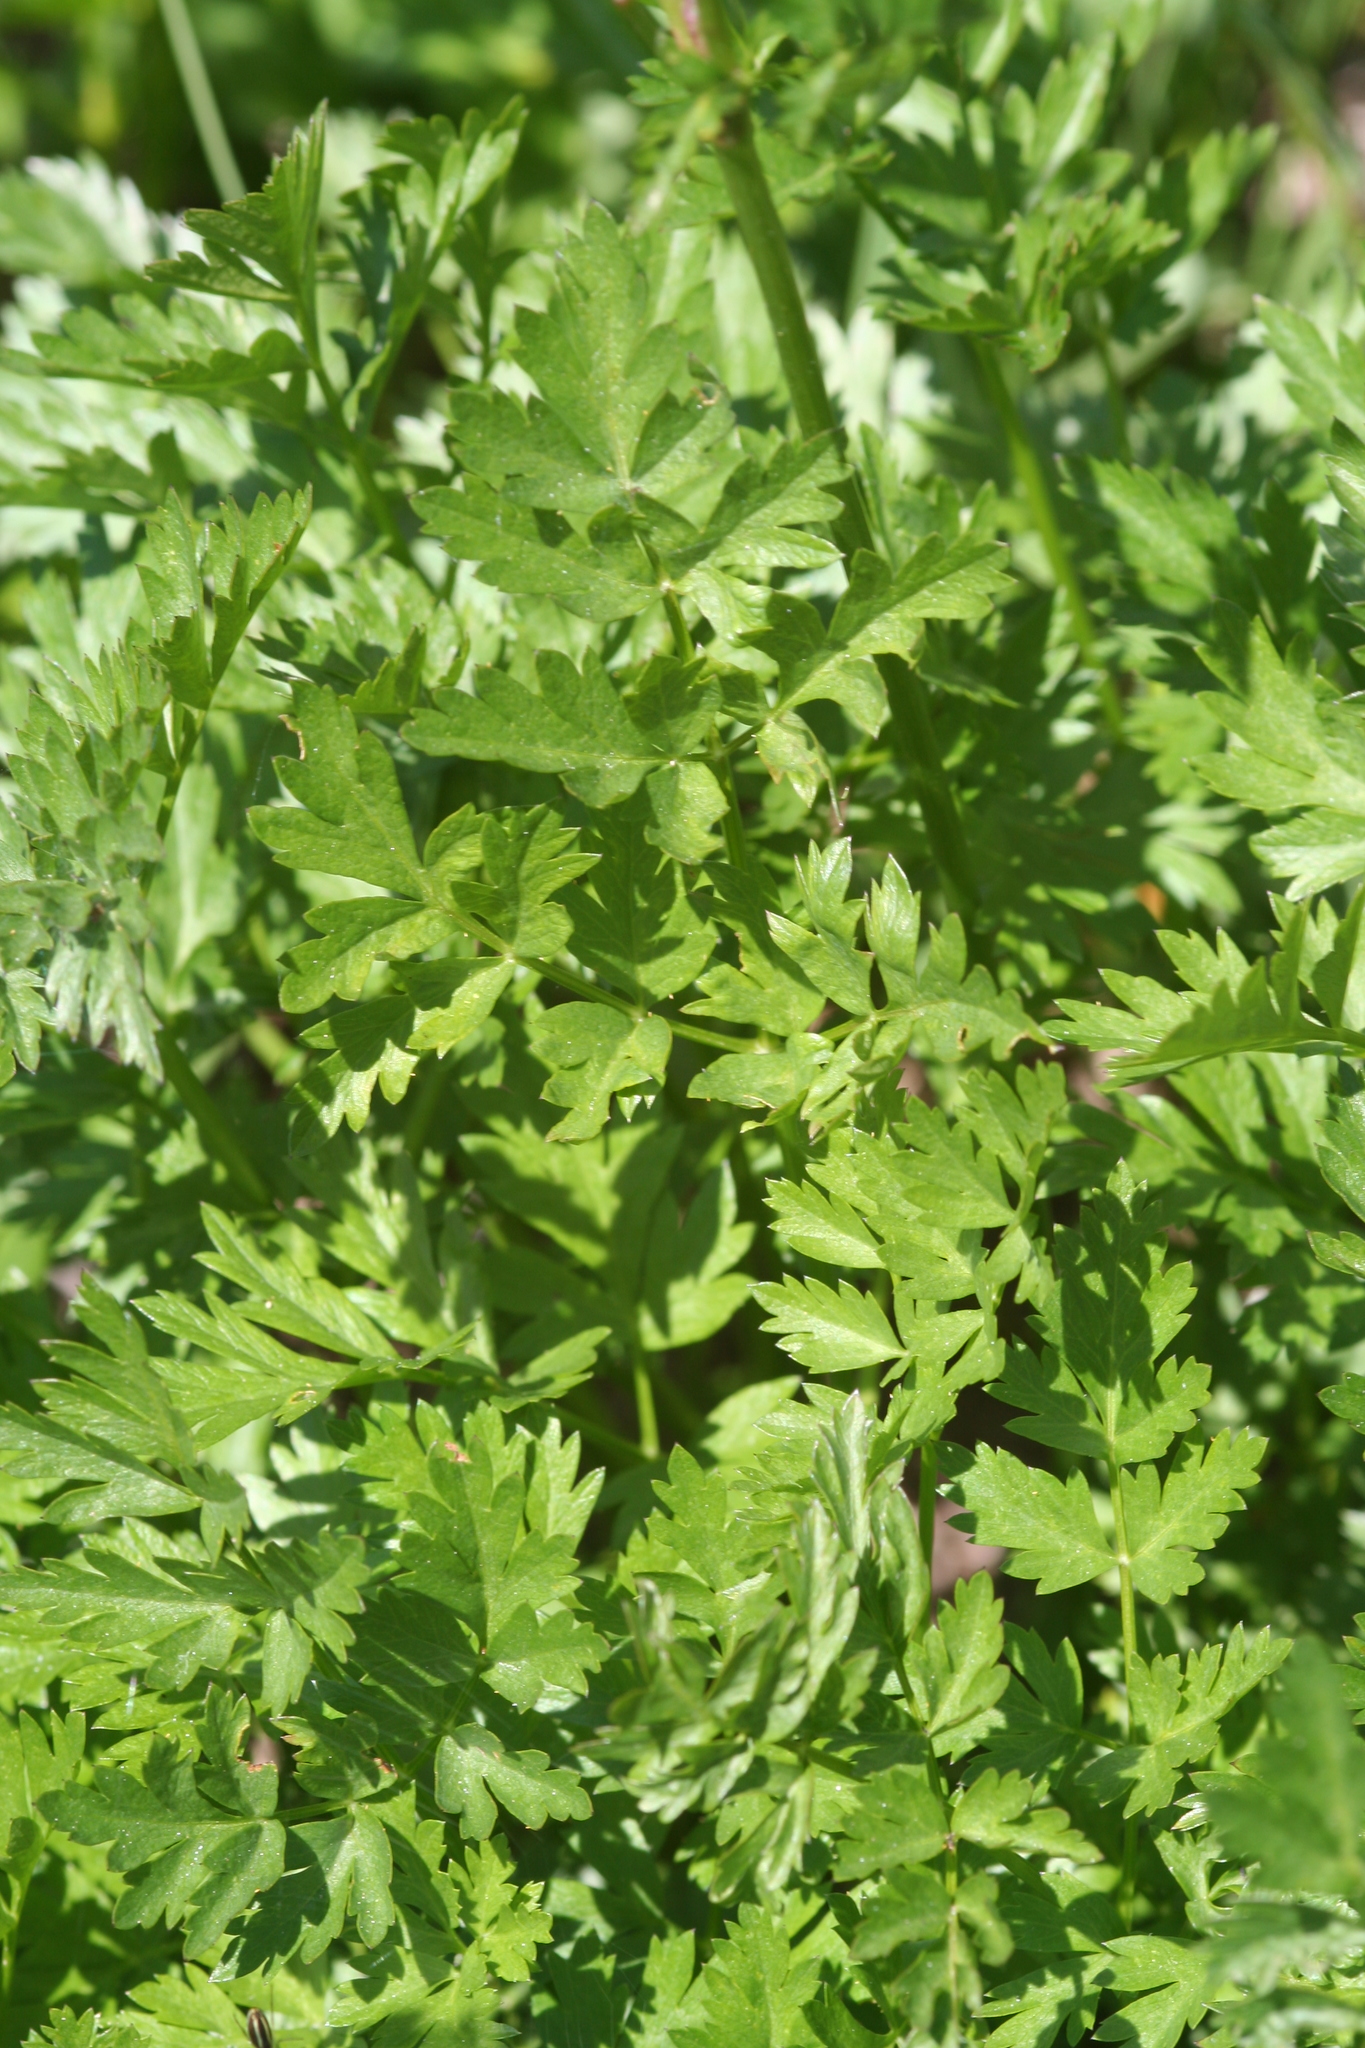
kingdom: Plantae
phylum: Tracheophyta
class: Magnoliopsida
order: Apiales
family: Apiaceae
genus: Ligusticum
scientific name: Ligusticum grayi
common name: Gray's licorice-root
